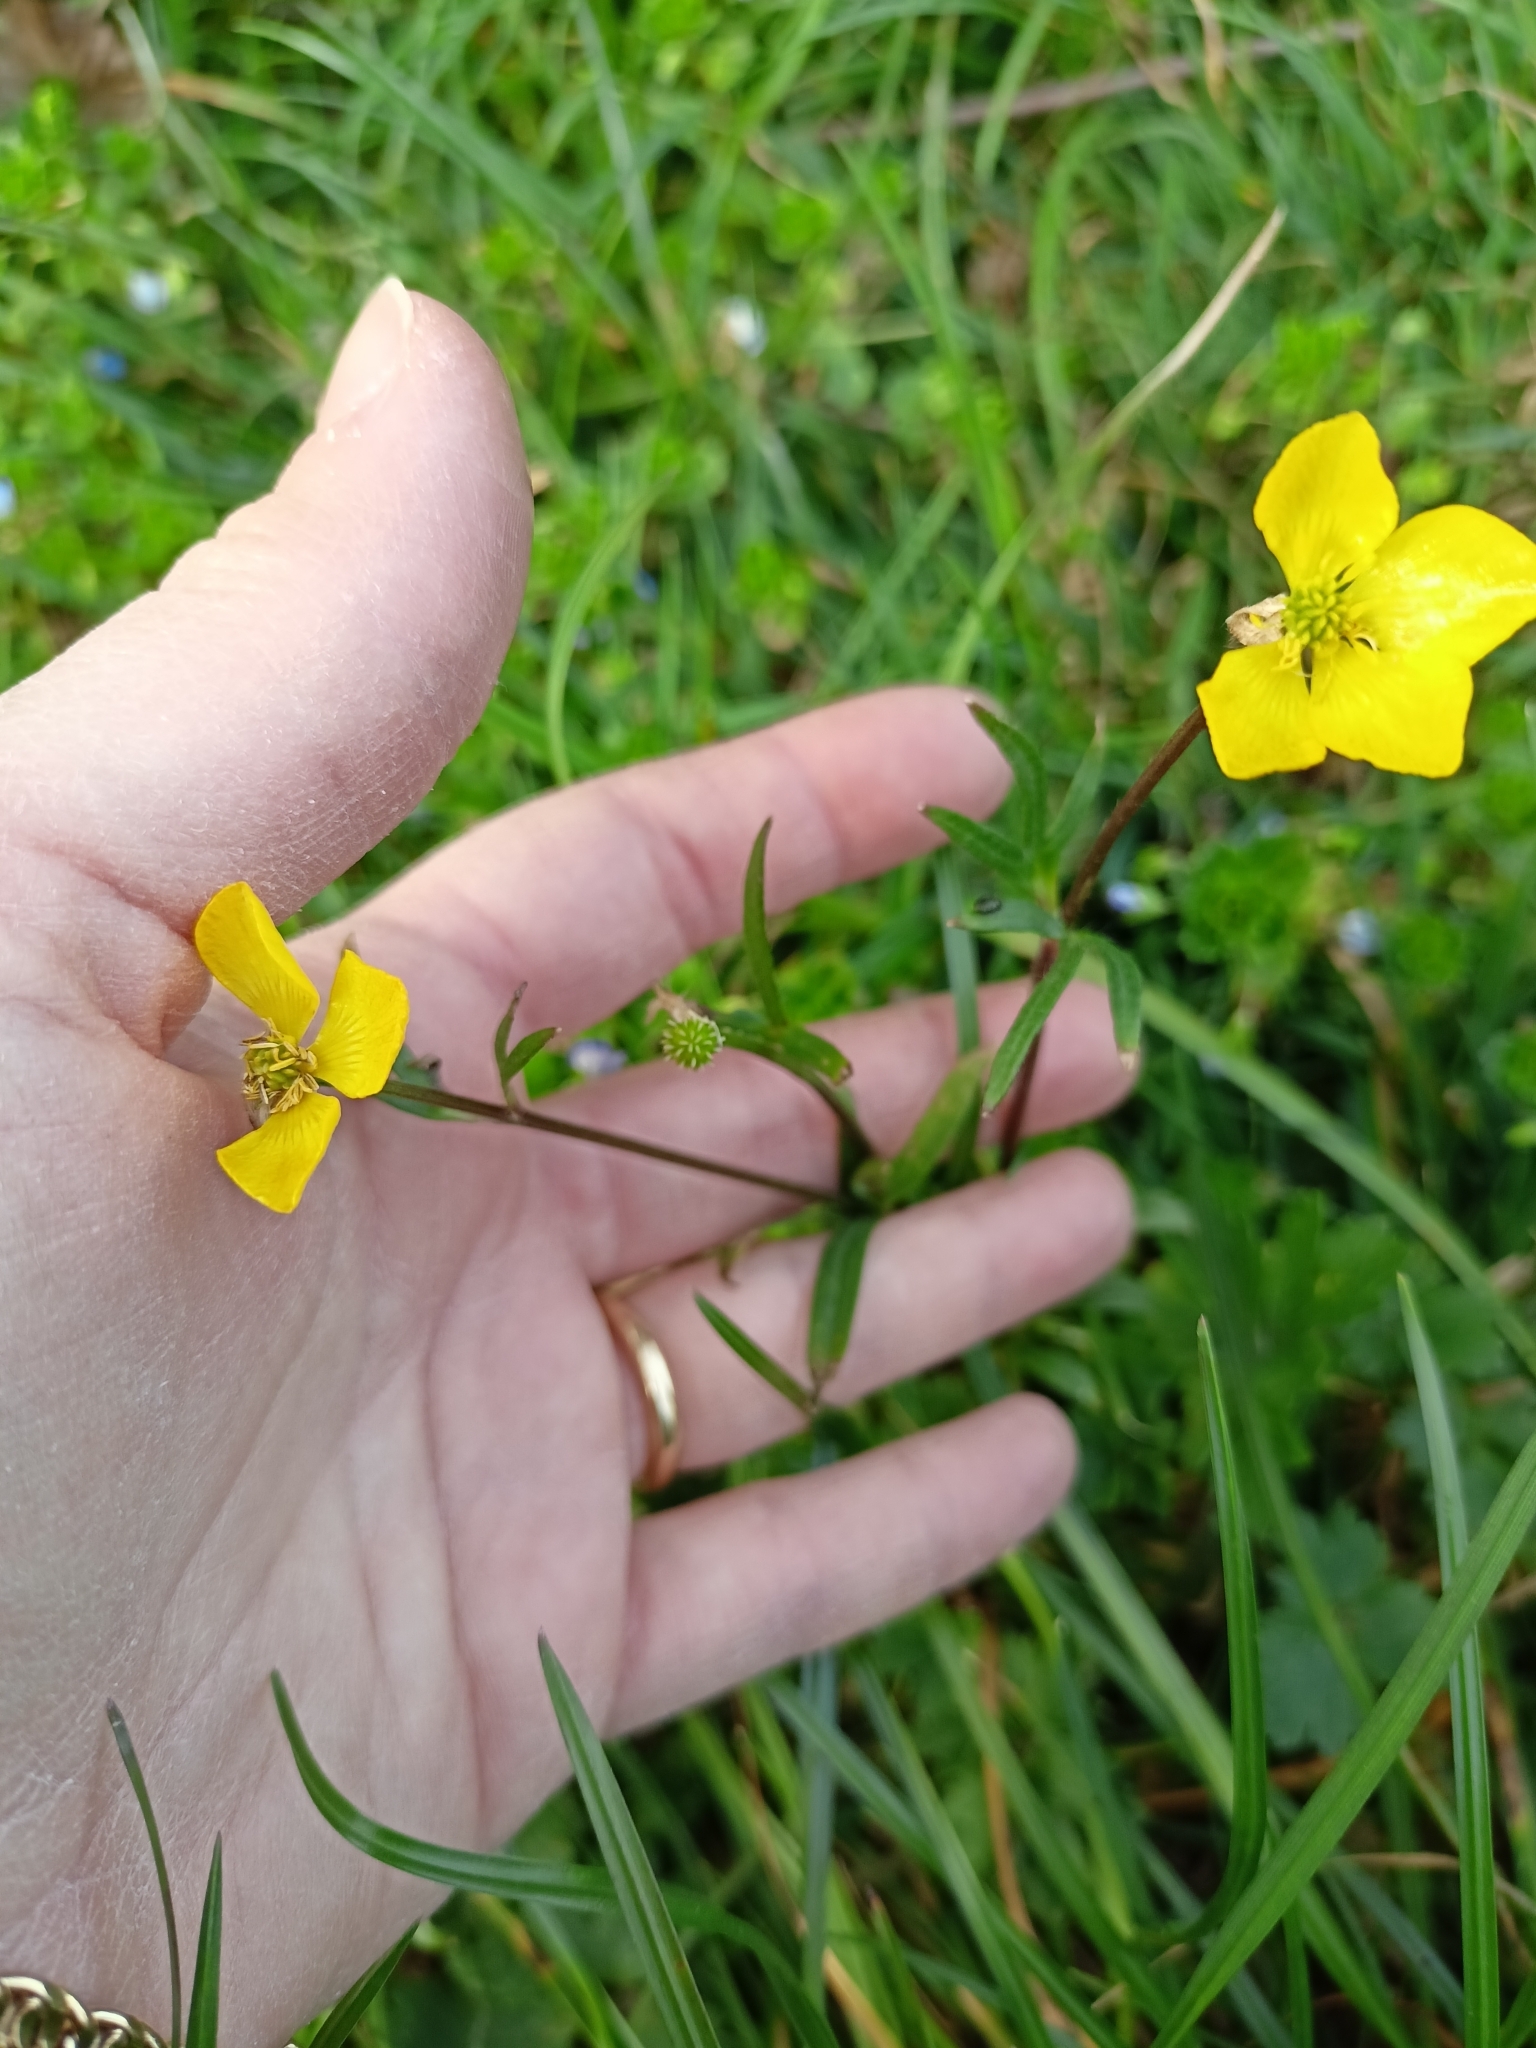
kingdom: Plantae
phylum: Tracheophyta
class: Magnoliopsida
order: Ranunculales
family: Ranunculaceae
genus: Ranunculus
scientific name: Ranunculus bulbosus
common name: Bulbous buttercup
